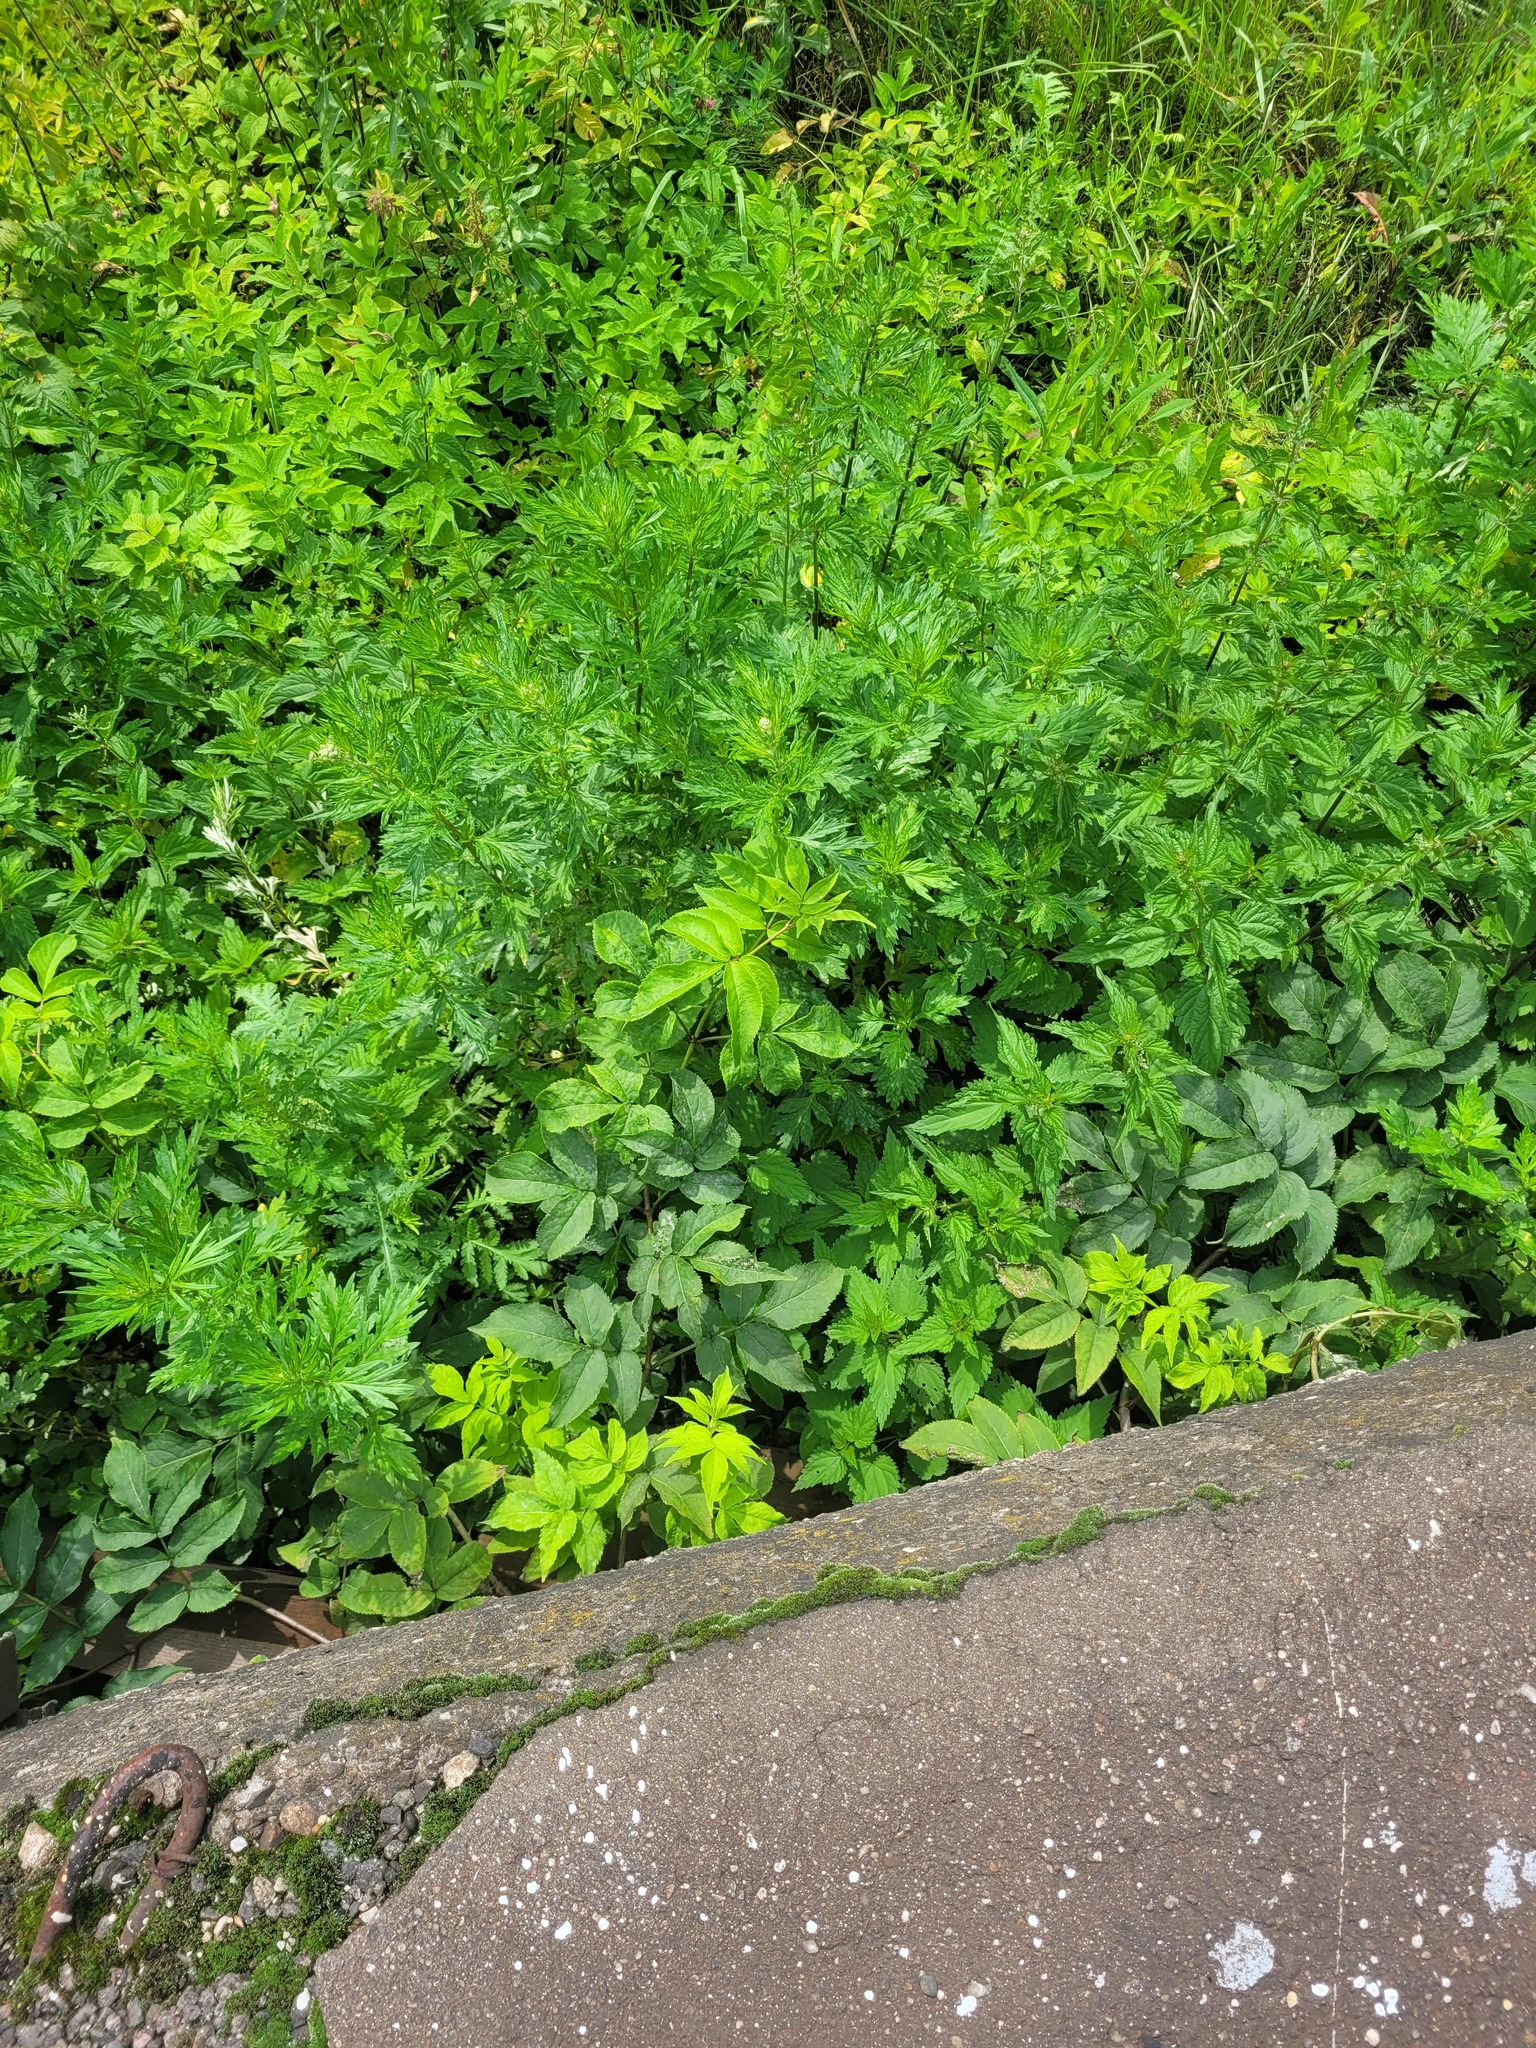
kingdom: Plantae
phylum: Tracheophyta
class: Magnoliopsida
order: Dipsacales
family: Viburnaceae
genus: Sambucus
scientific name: Sambucus racemosa
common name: Red-berried elder
